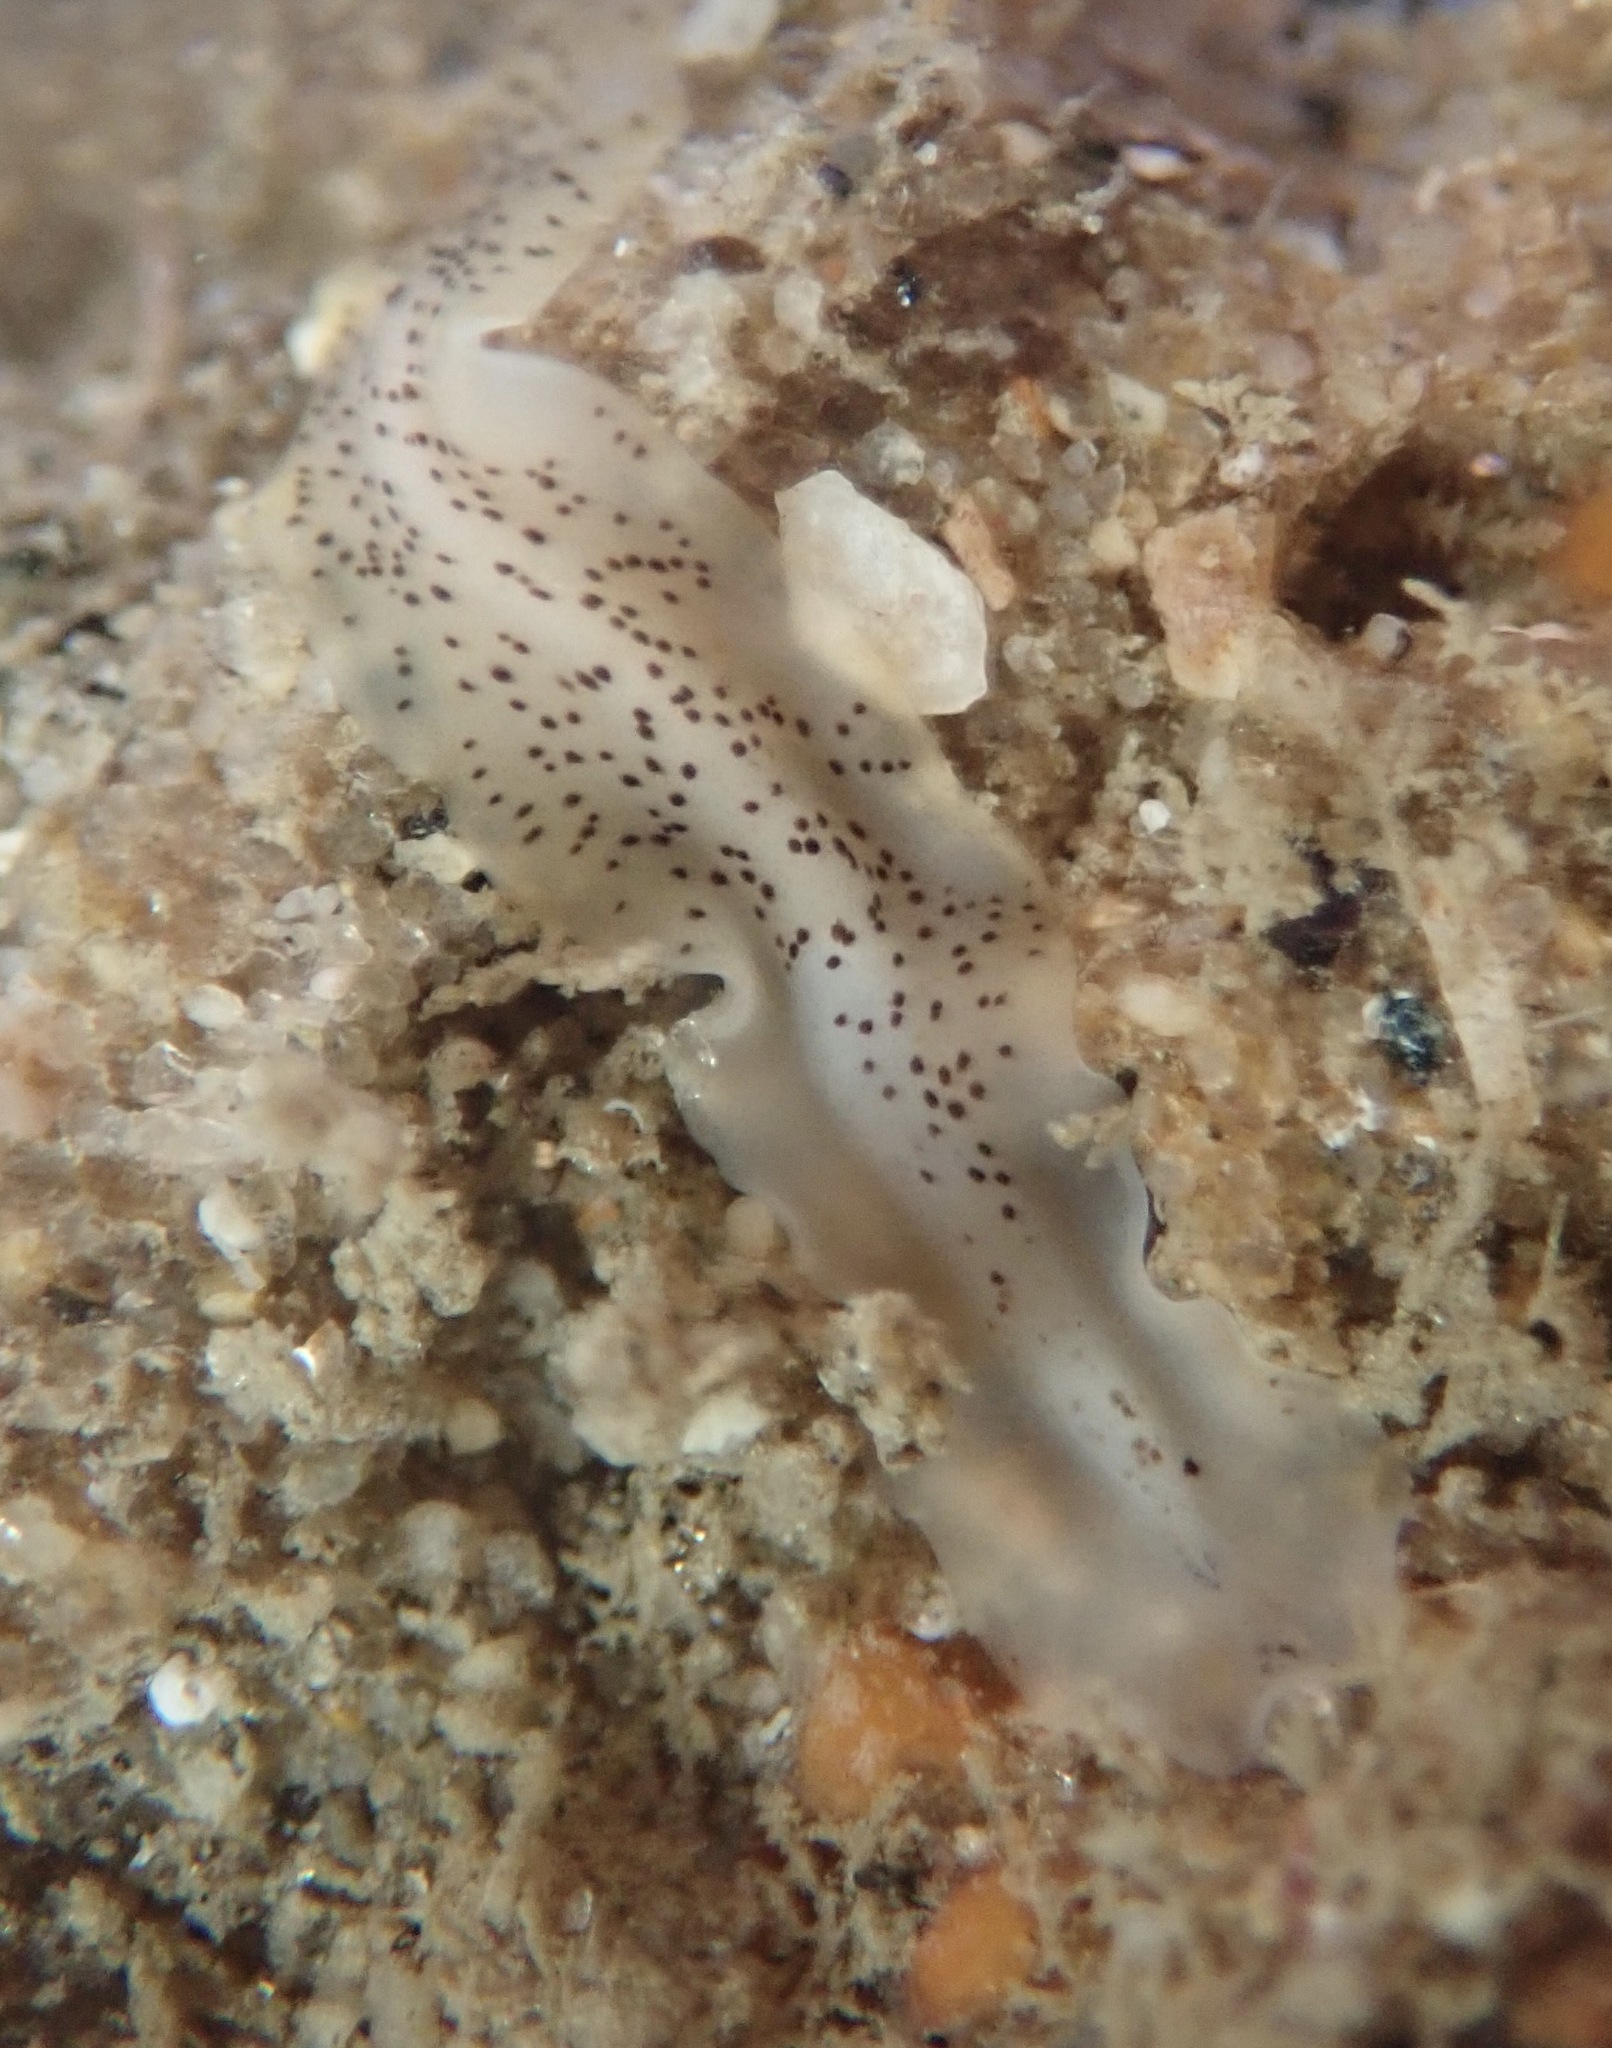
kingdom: Animalia
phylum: Platyhelminthes
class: Turbellaria
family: Prosthiostomidae
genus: Enchiridium
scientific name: Enchiridium punctatum
